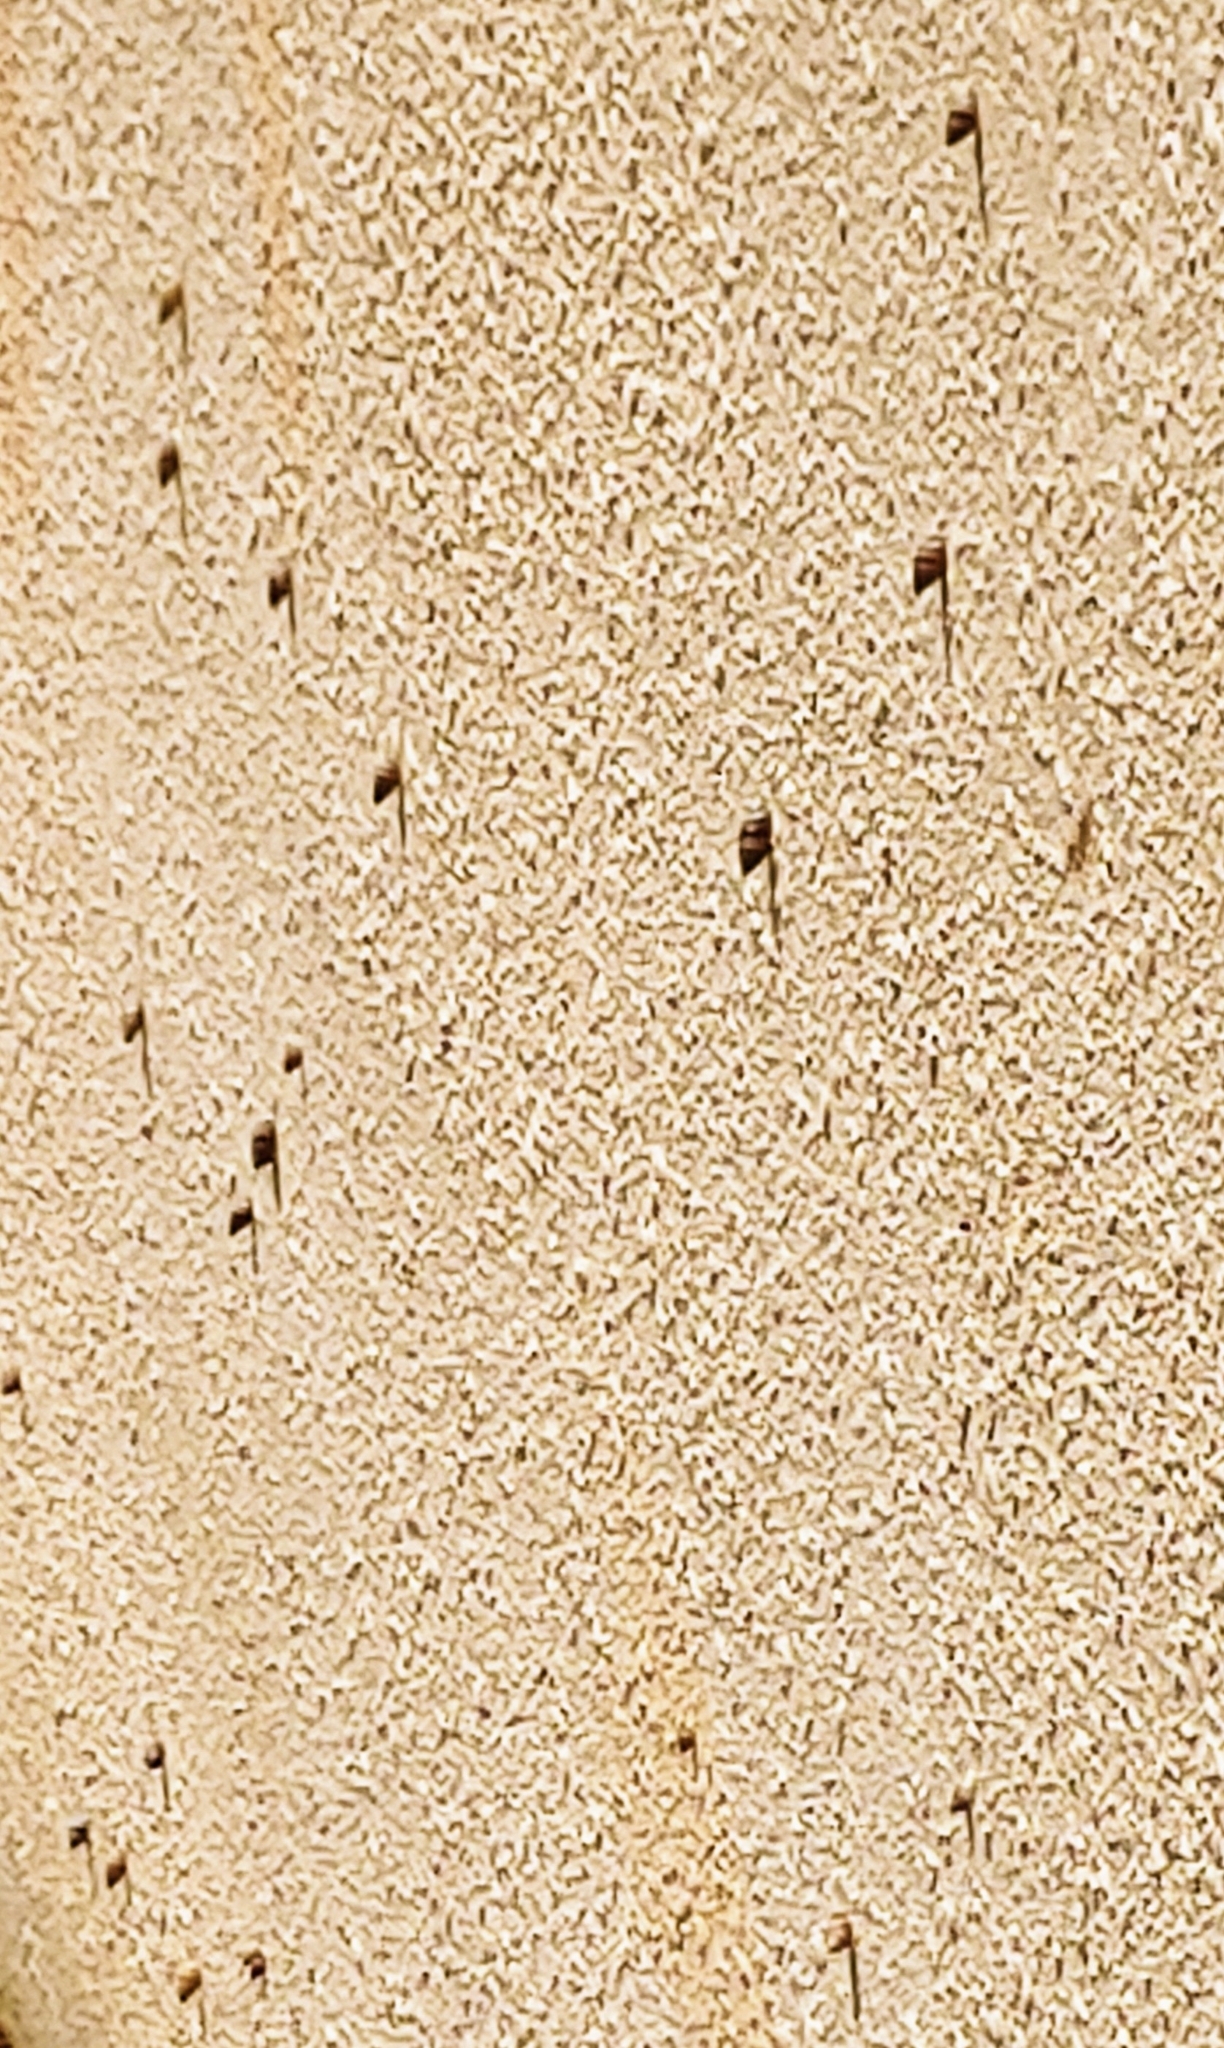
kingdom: Animalia
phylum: Mollusca
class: Gastropoda
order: Stylommatophora
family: Bulimulidae
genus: Bulimulus
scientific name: Bulimulus guadalupensis
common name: West indian bulimulus
